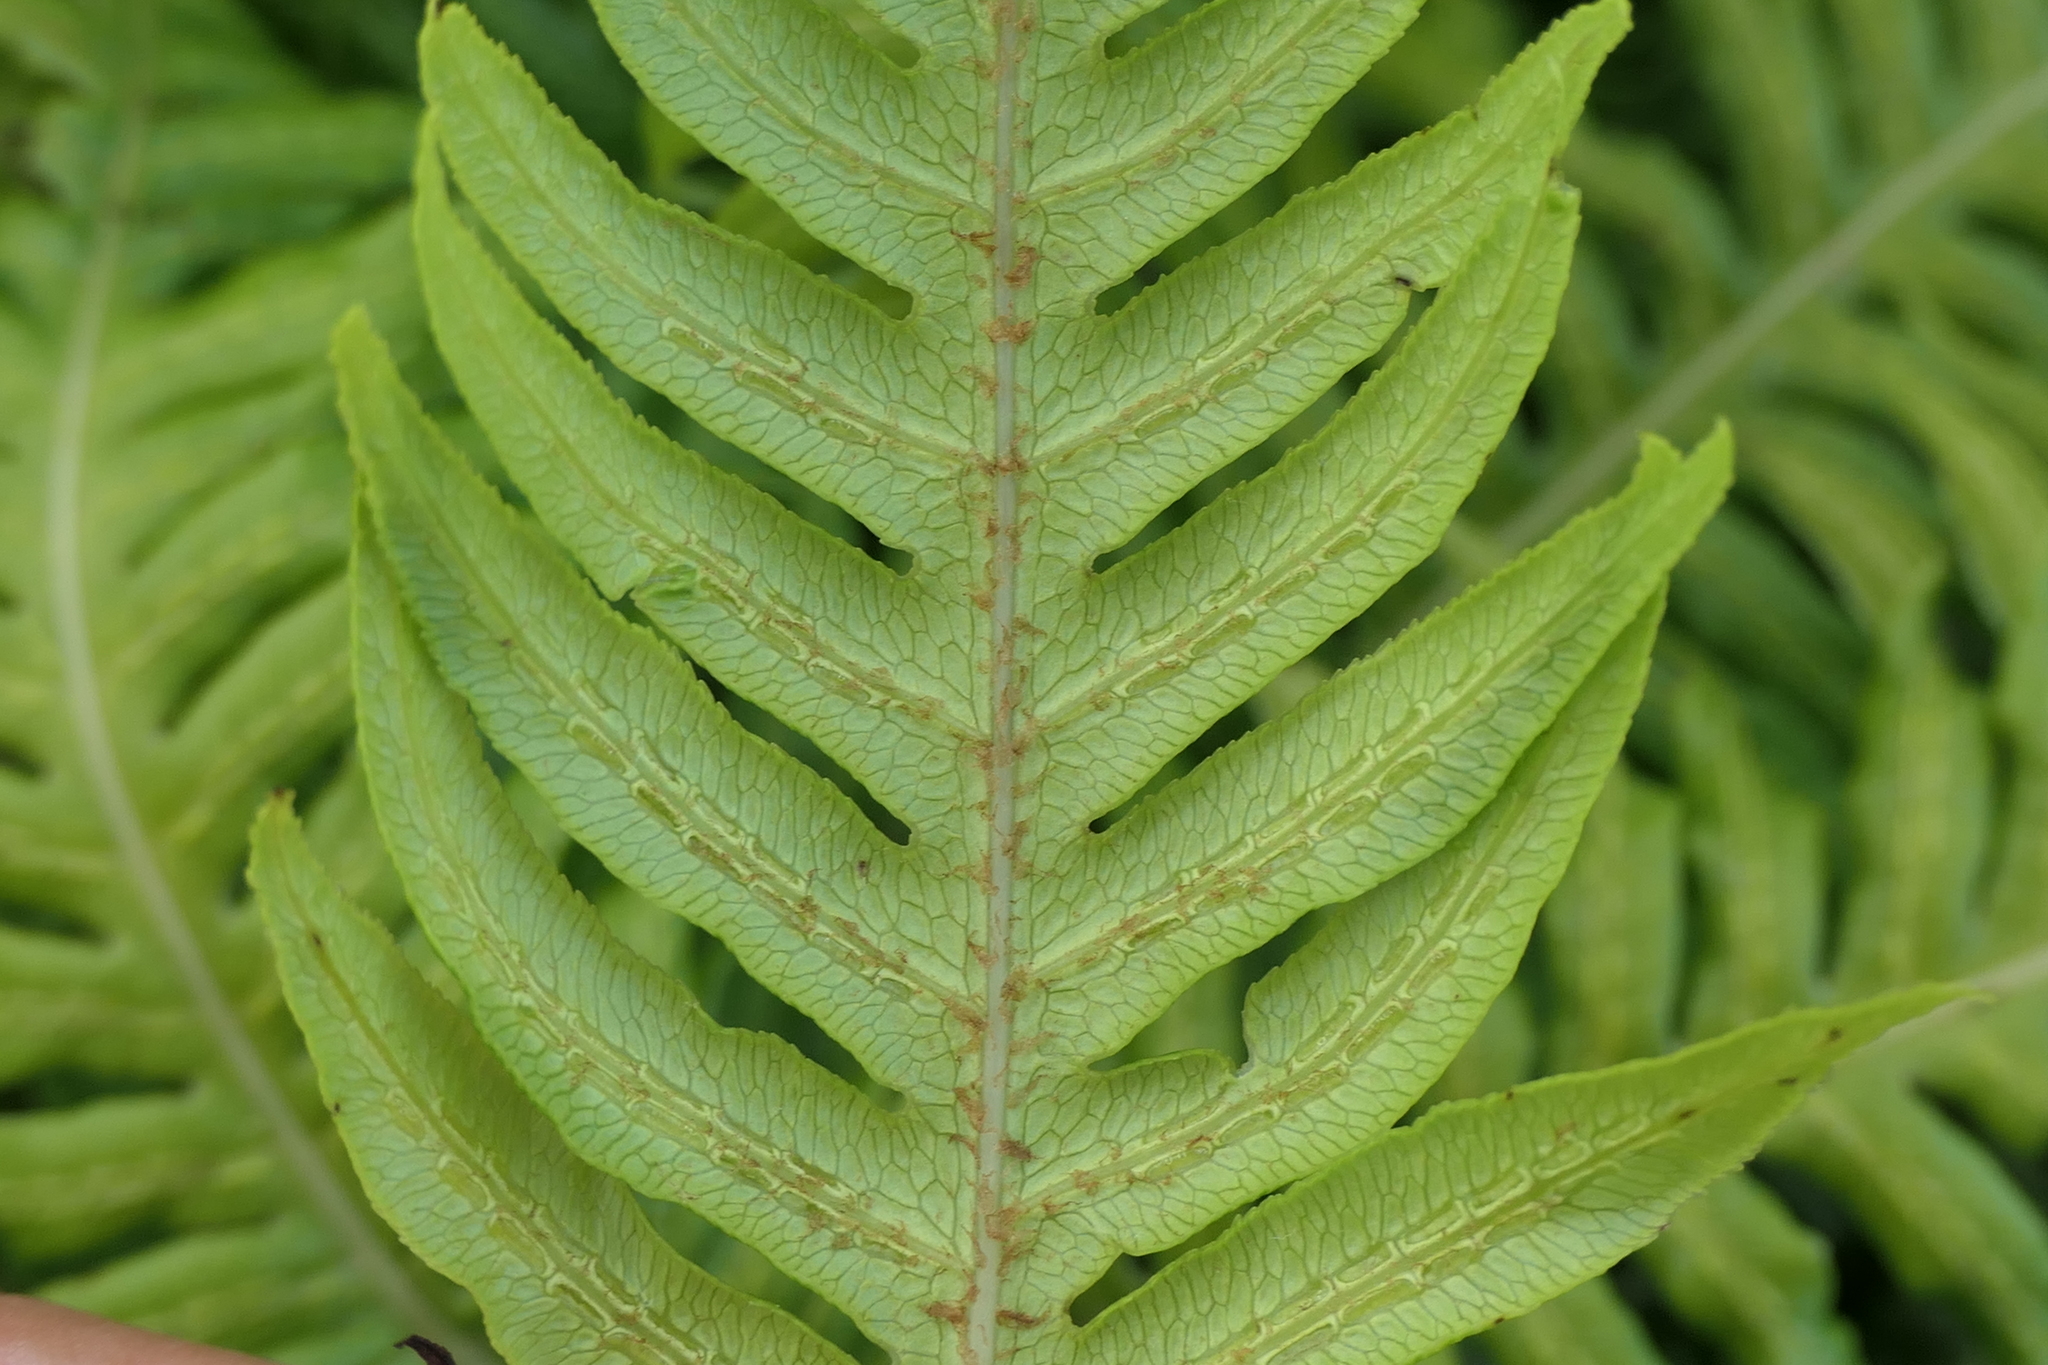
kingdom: Plantae
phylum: Tracheophyta
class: Polypodiopsida
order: Polypodiales
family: Blechnaceae
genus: Woodwardia
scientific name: Woodwardia radicans
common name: Rooting chainfern
